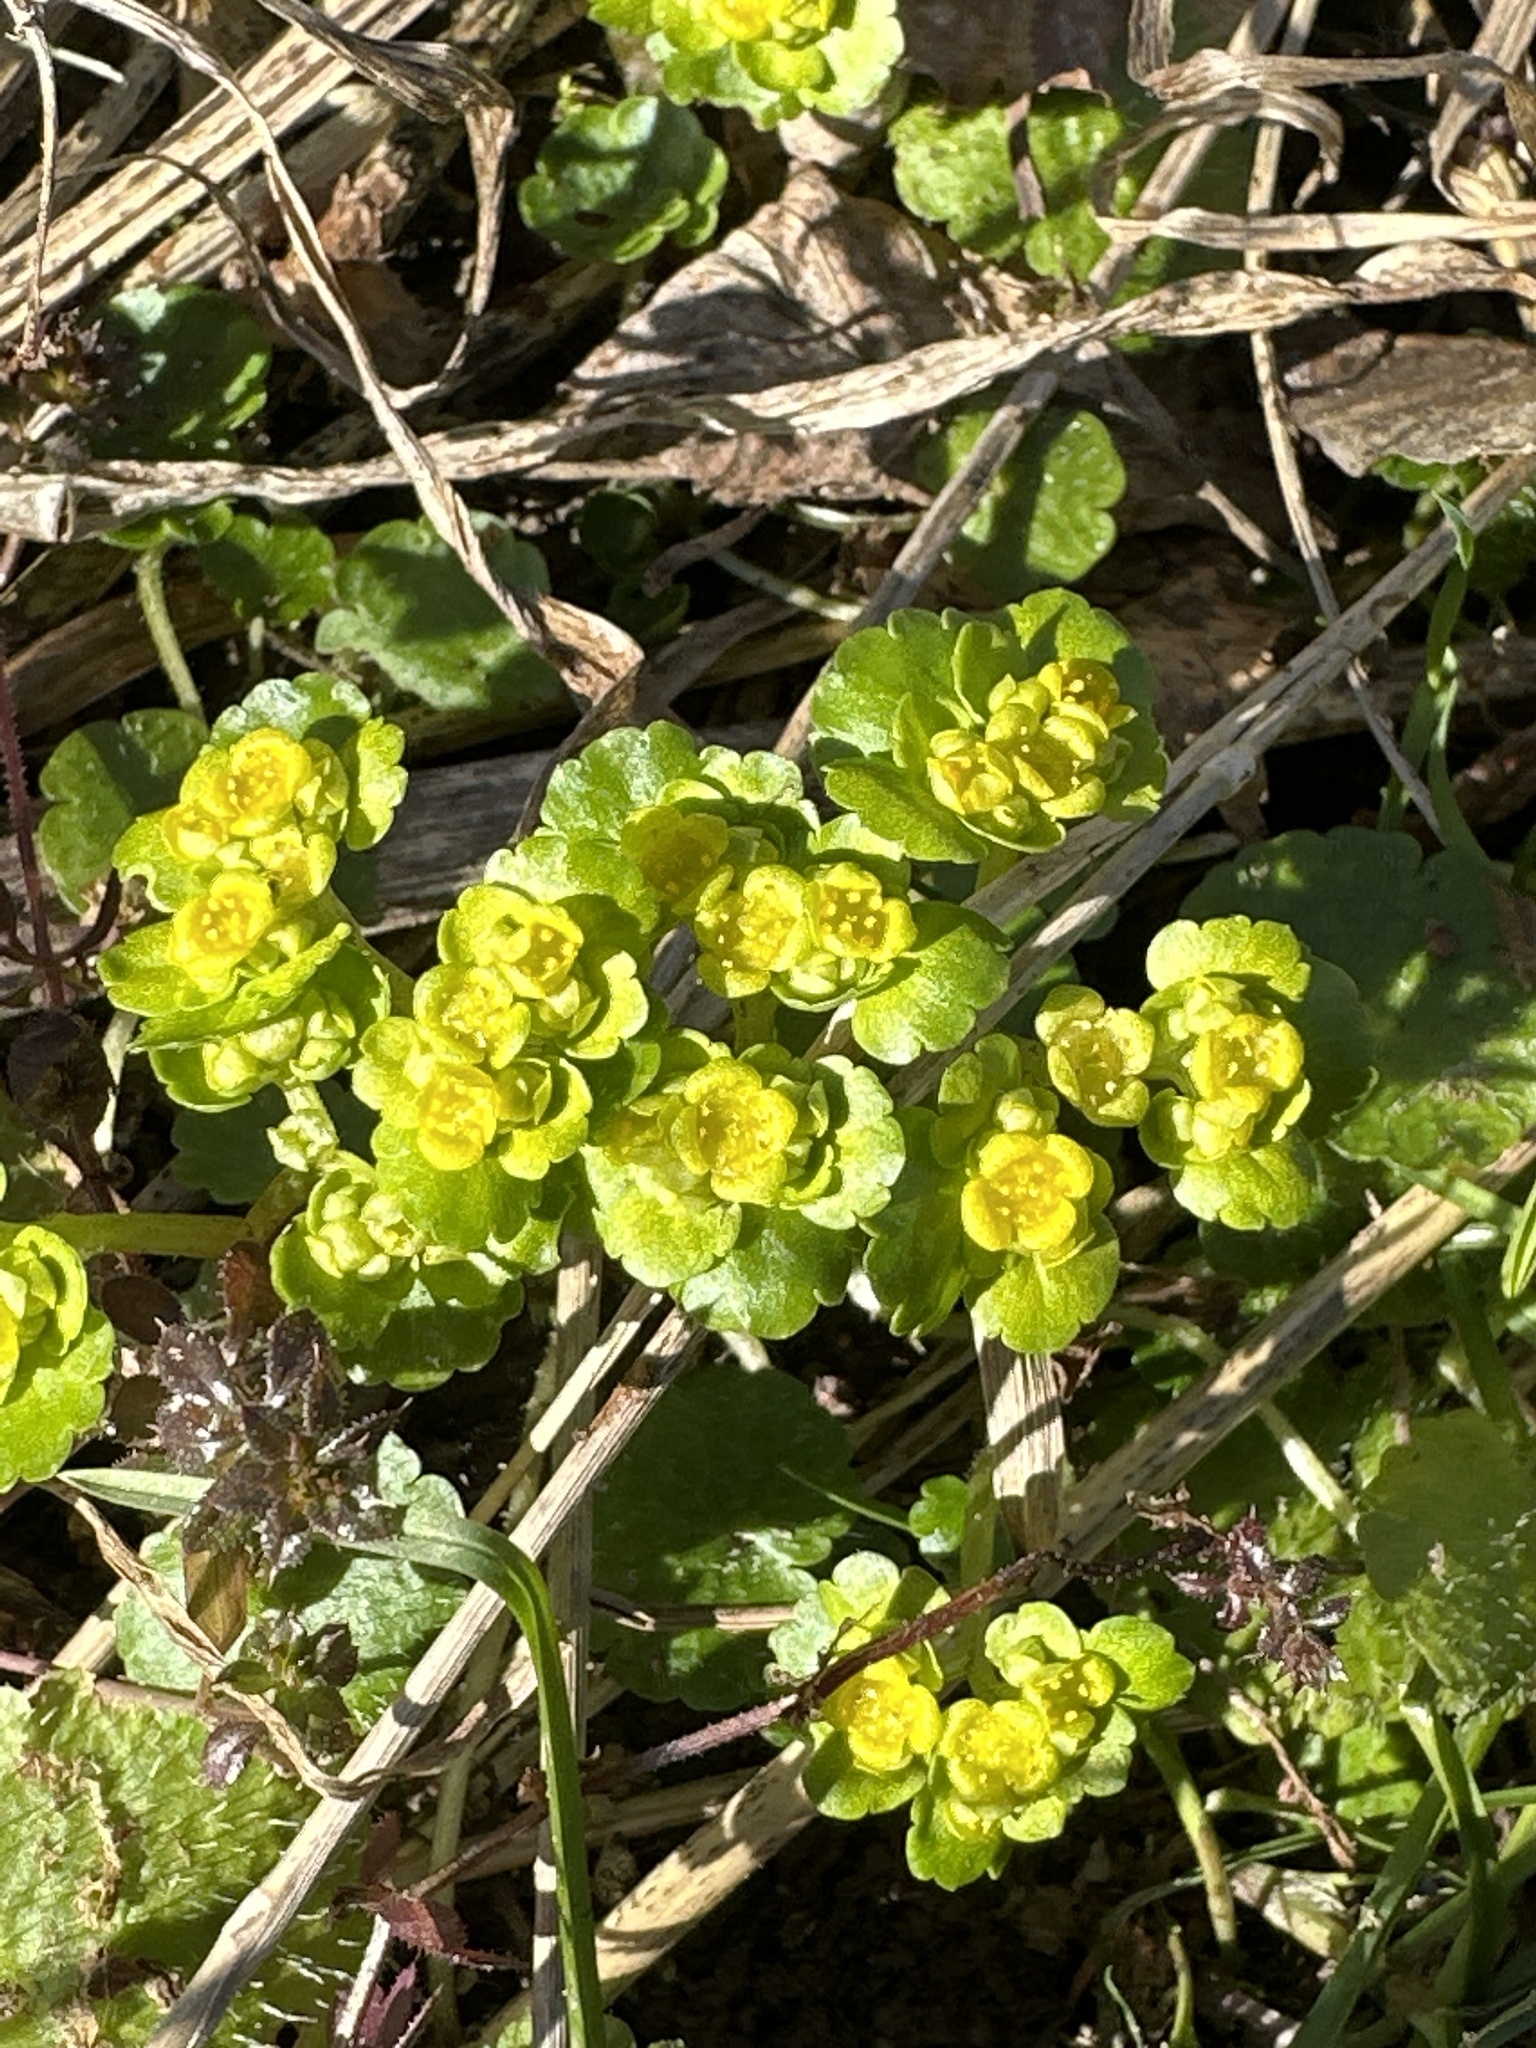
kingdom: Plantae
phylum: Tracheophyta
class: Magnoliopsida
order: Saxifragales
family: Saxifragaceae
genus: Chrysosplenium
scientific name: Chrysosplenium alternifolium
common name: Alternate-leaved golden-saxifrage
